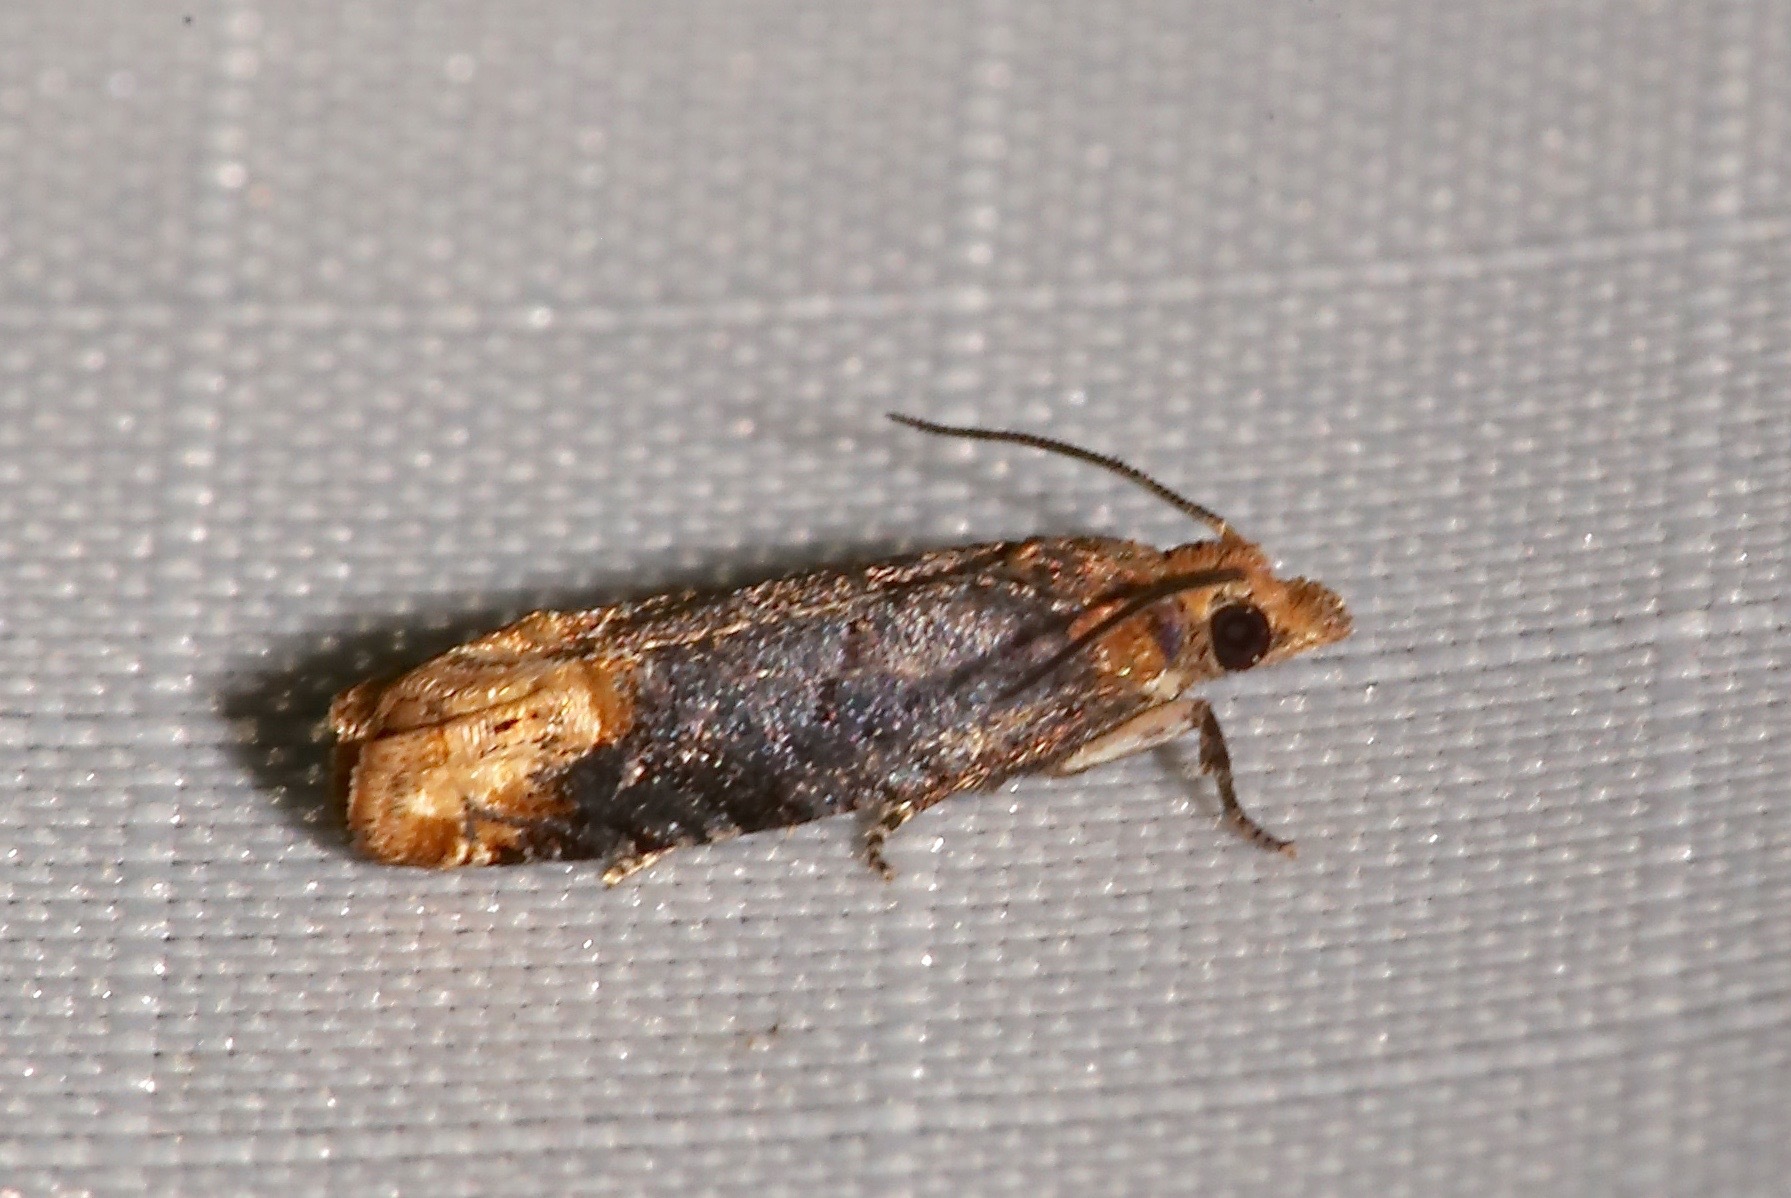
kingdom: Animalia
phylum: Arthropoda
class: Insecta
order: Lepidoptera
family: Tortricidae
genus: Eucosma
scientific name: Eucosma ochroterminana
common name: Buff-tipped eucosma moth
